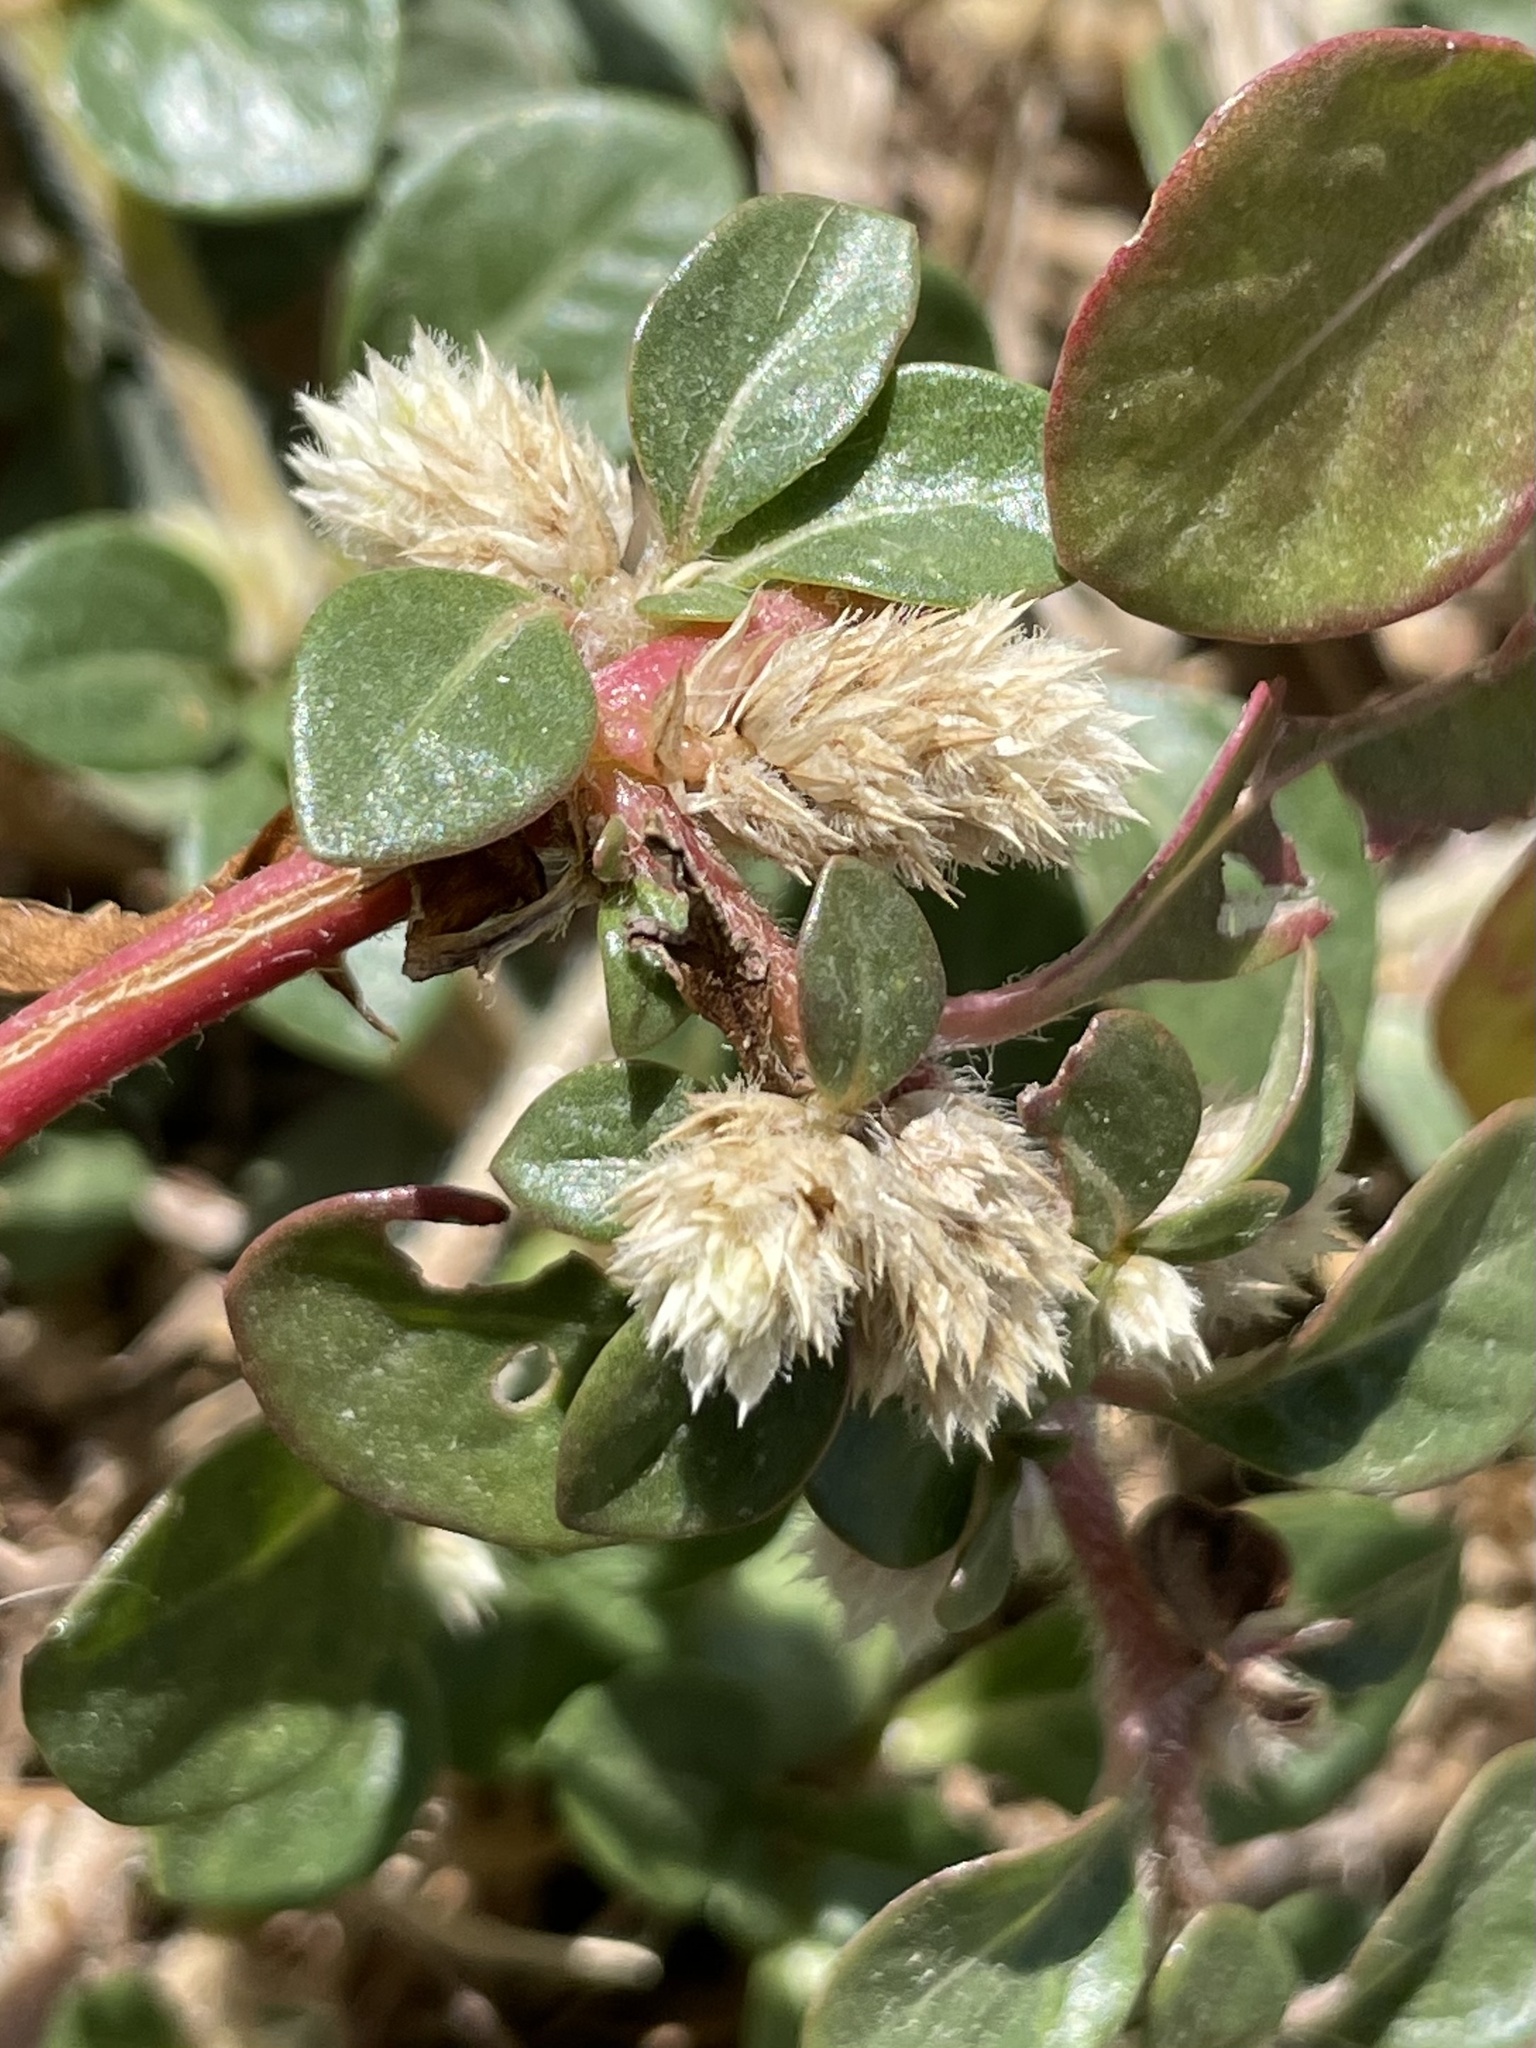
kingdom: Plantae
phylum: Tracheophyta
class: Magnoliopsida
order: Caryophyllales
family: Amaranthaceae
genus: Alternanthera
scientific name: Alternanthera caracasana
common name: Washerwoman
